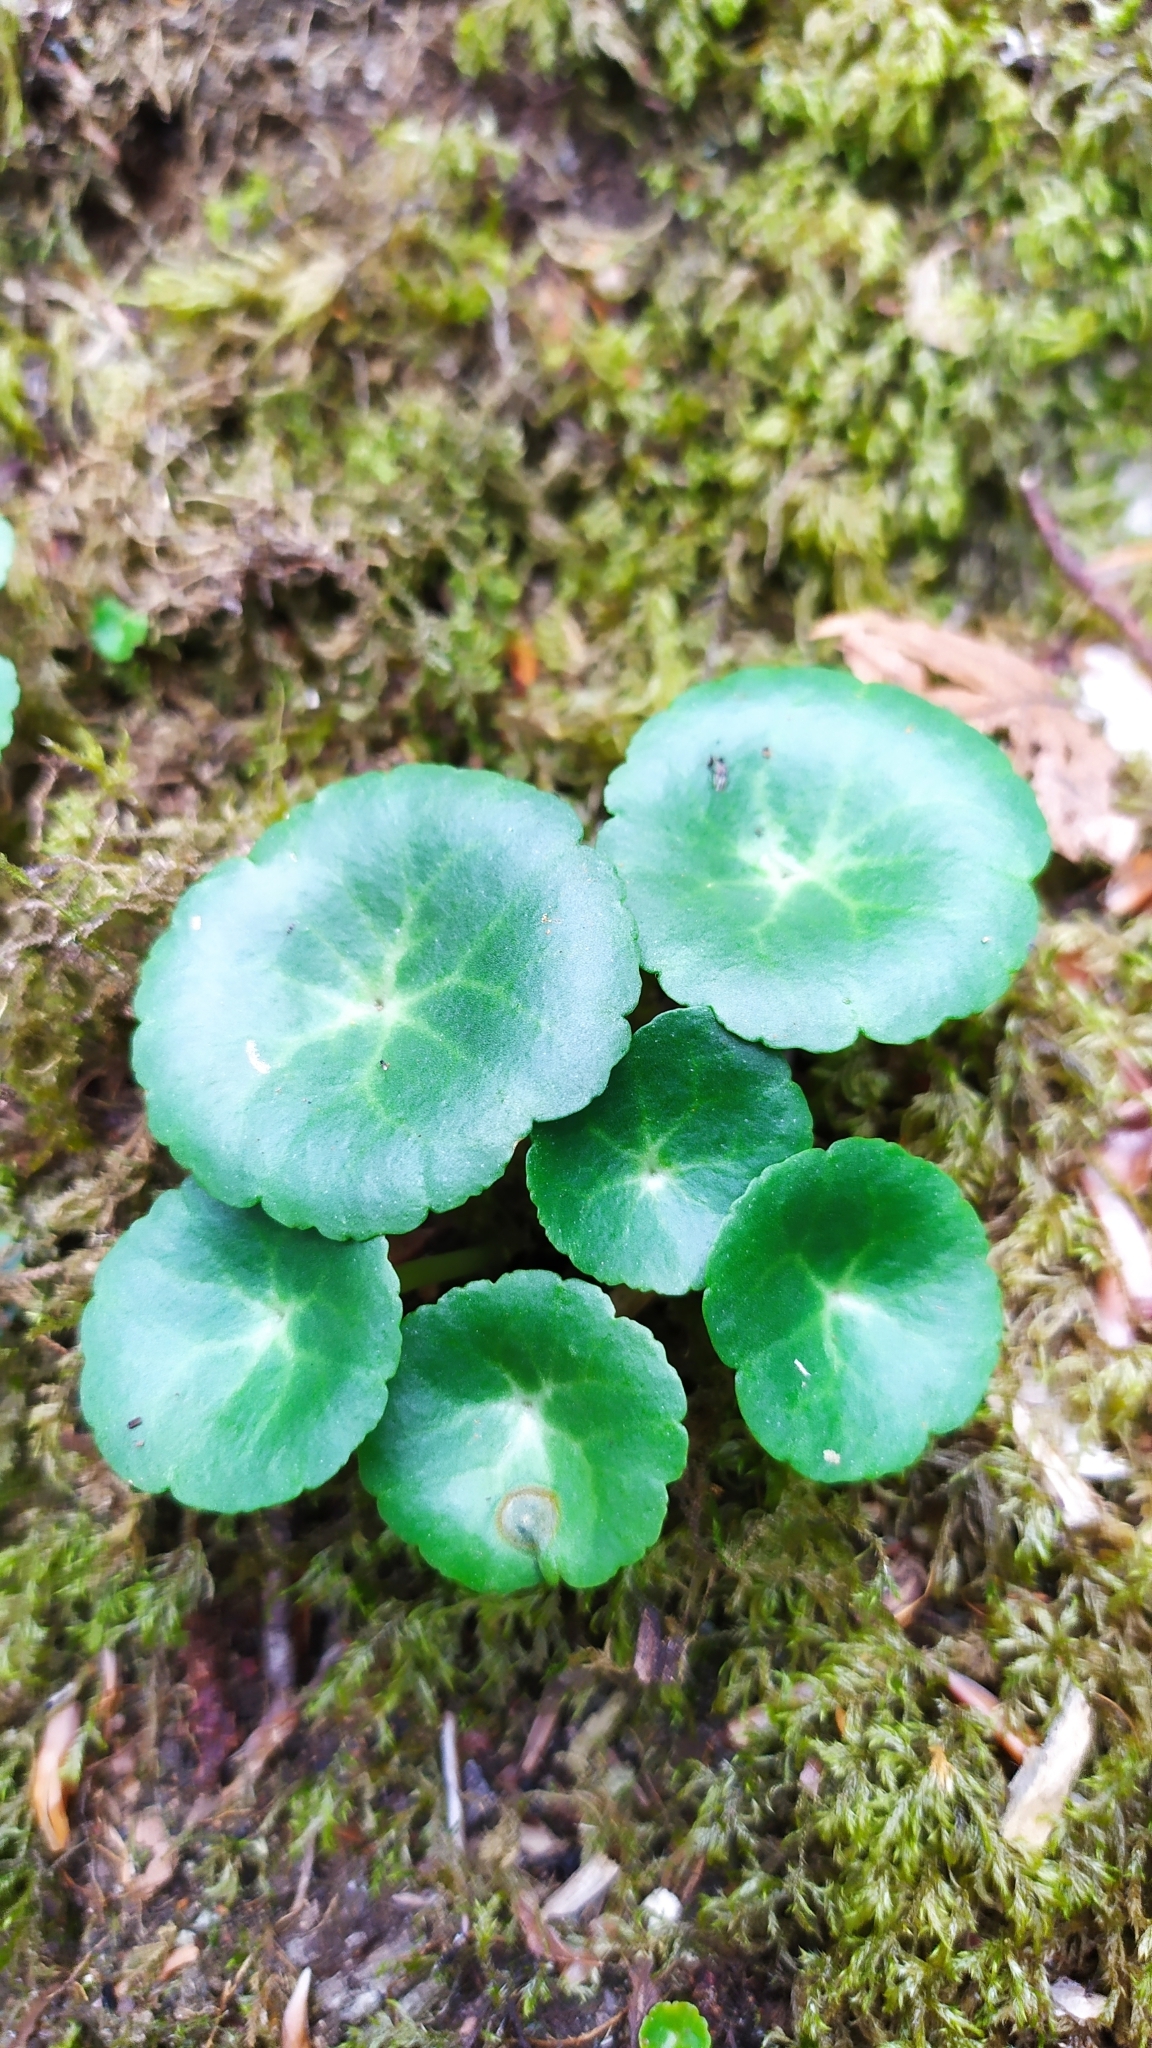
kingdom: Plantae
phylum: Tracheophyta
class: Magnoliopsida
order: Saxifragales
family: Crassulaceae
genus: Umbilicus
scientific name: Umbilicus rupestris
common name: Navelwort
